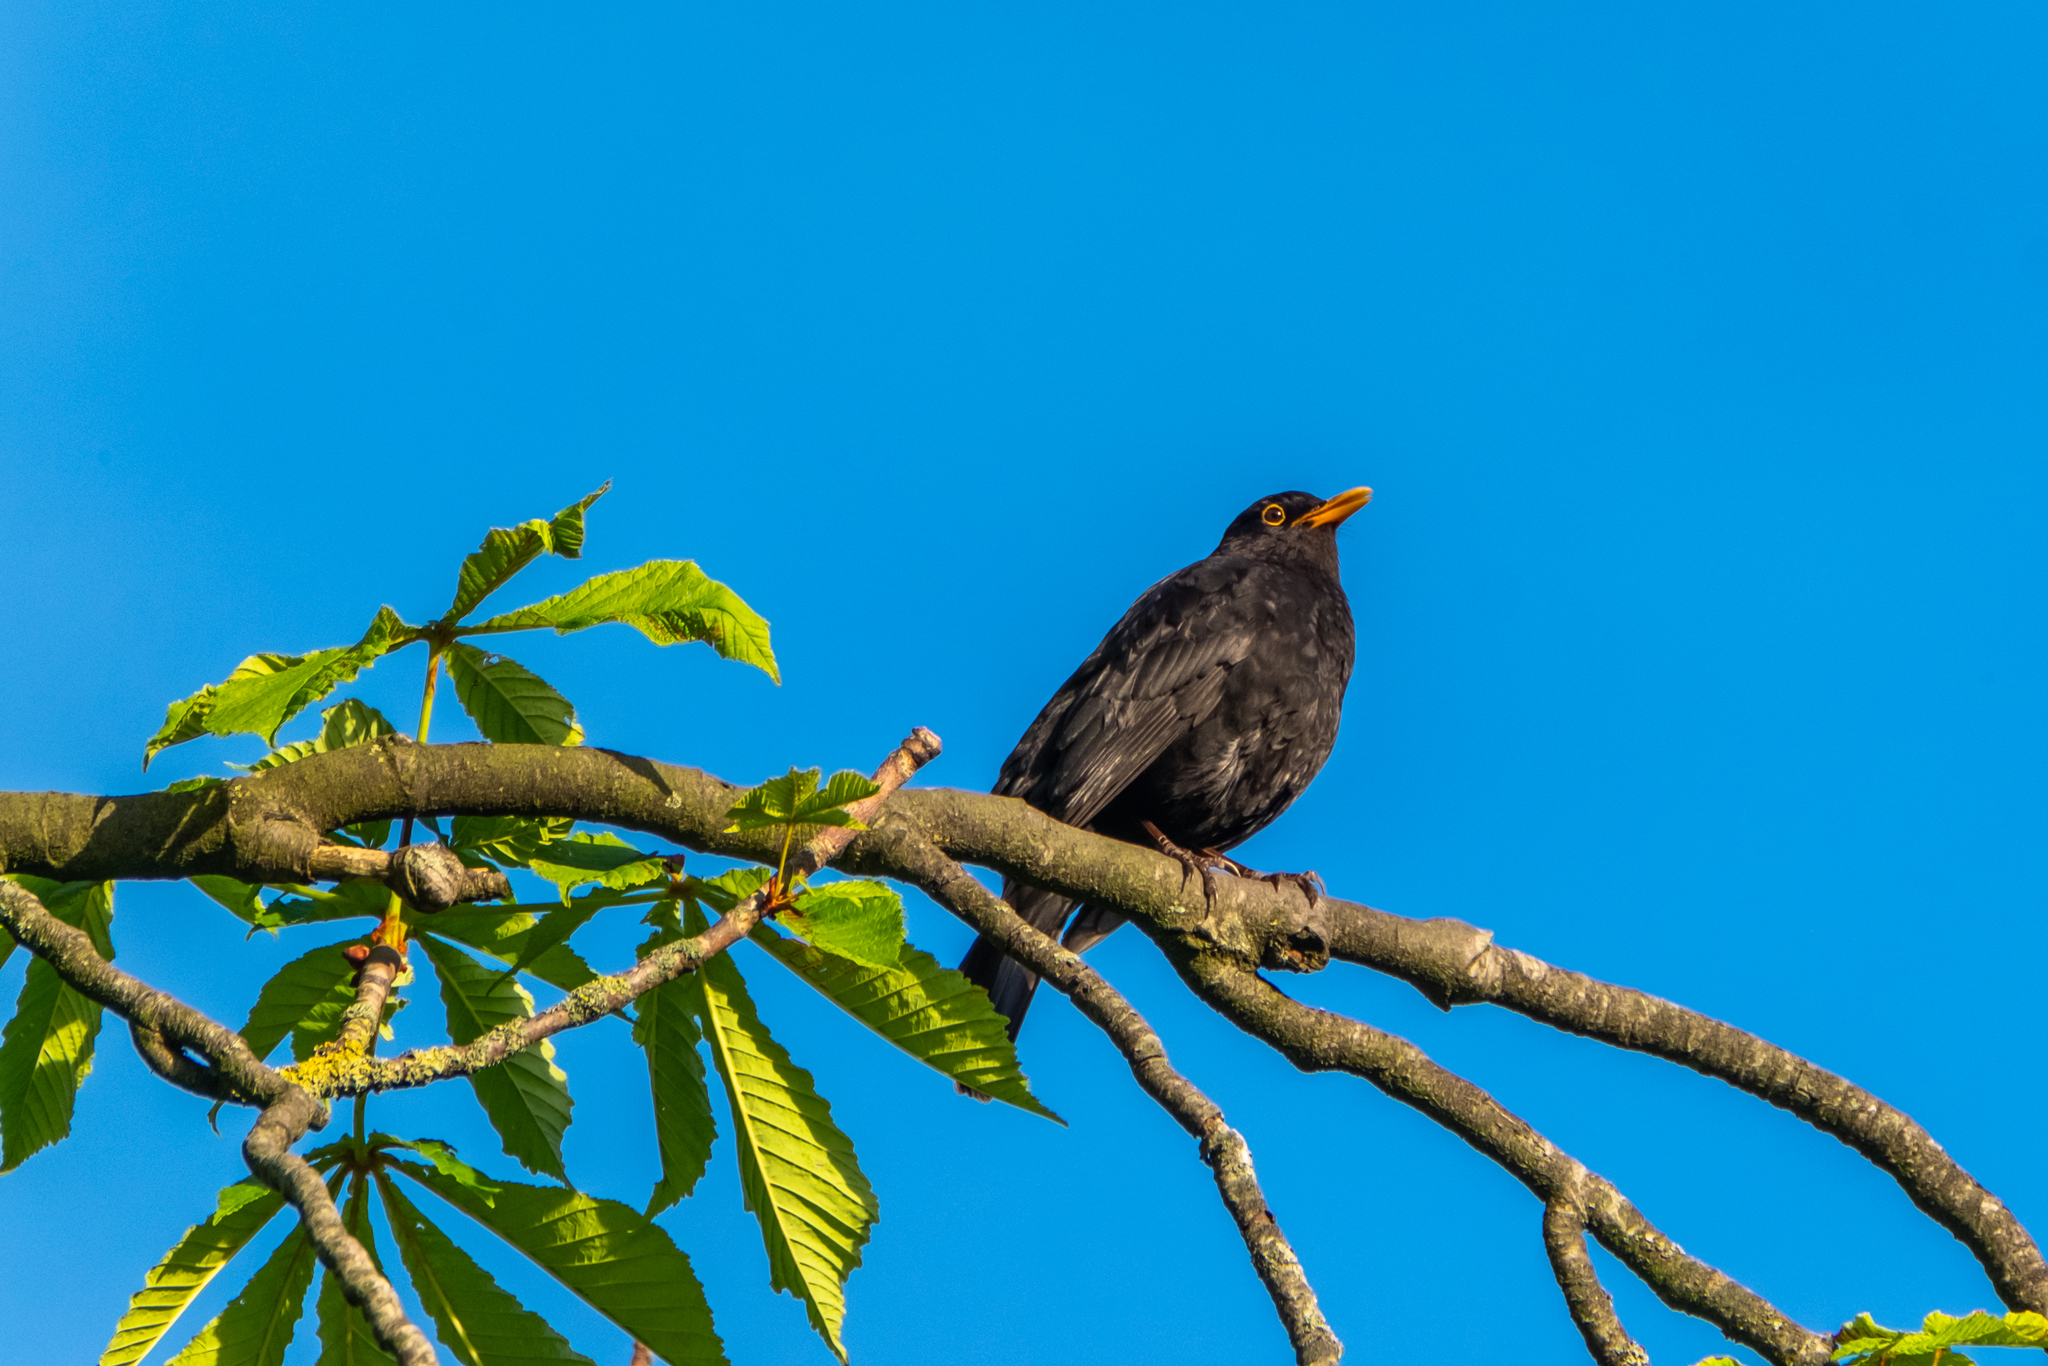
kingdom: Animalia
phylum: Chordata
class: Aves
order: Passeriformes
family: Turdidae
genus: Turdus
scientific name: Turdus merula
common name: Common blackbird
